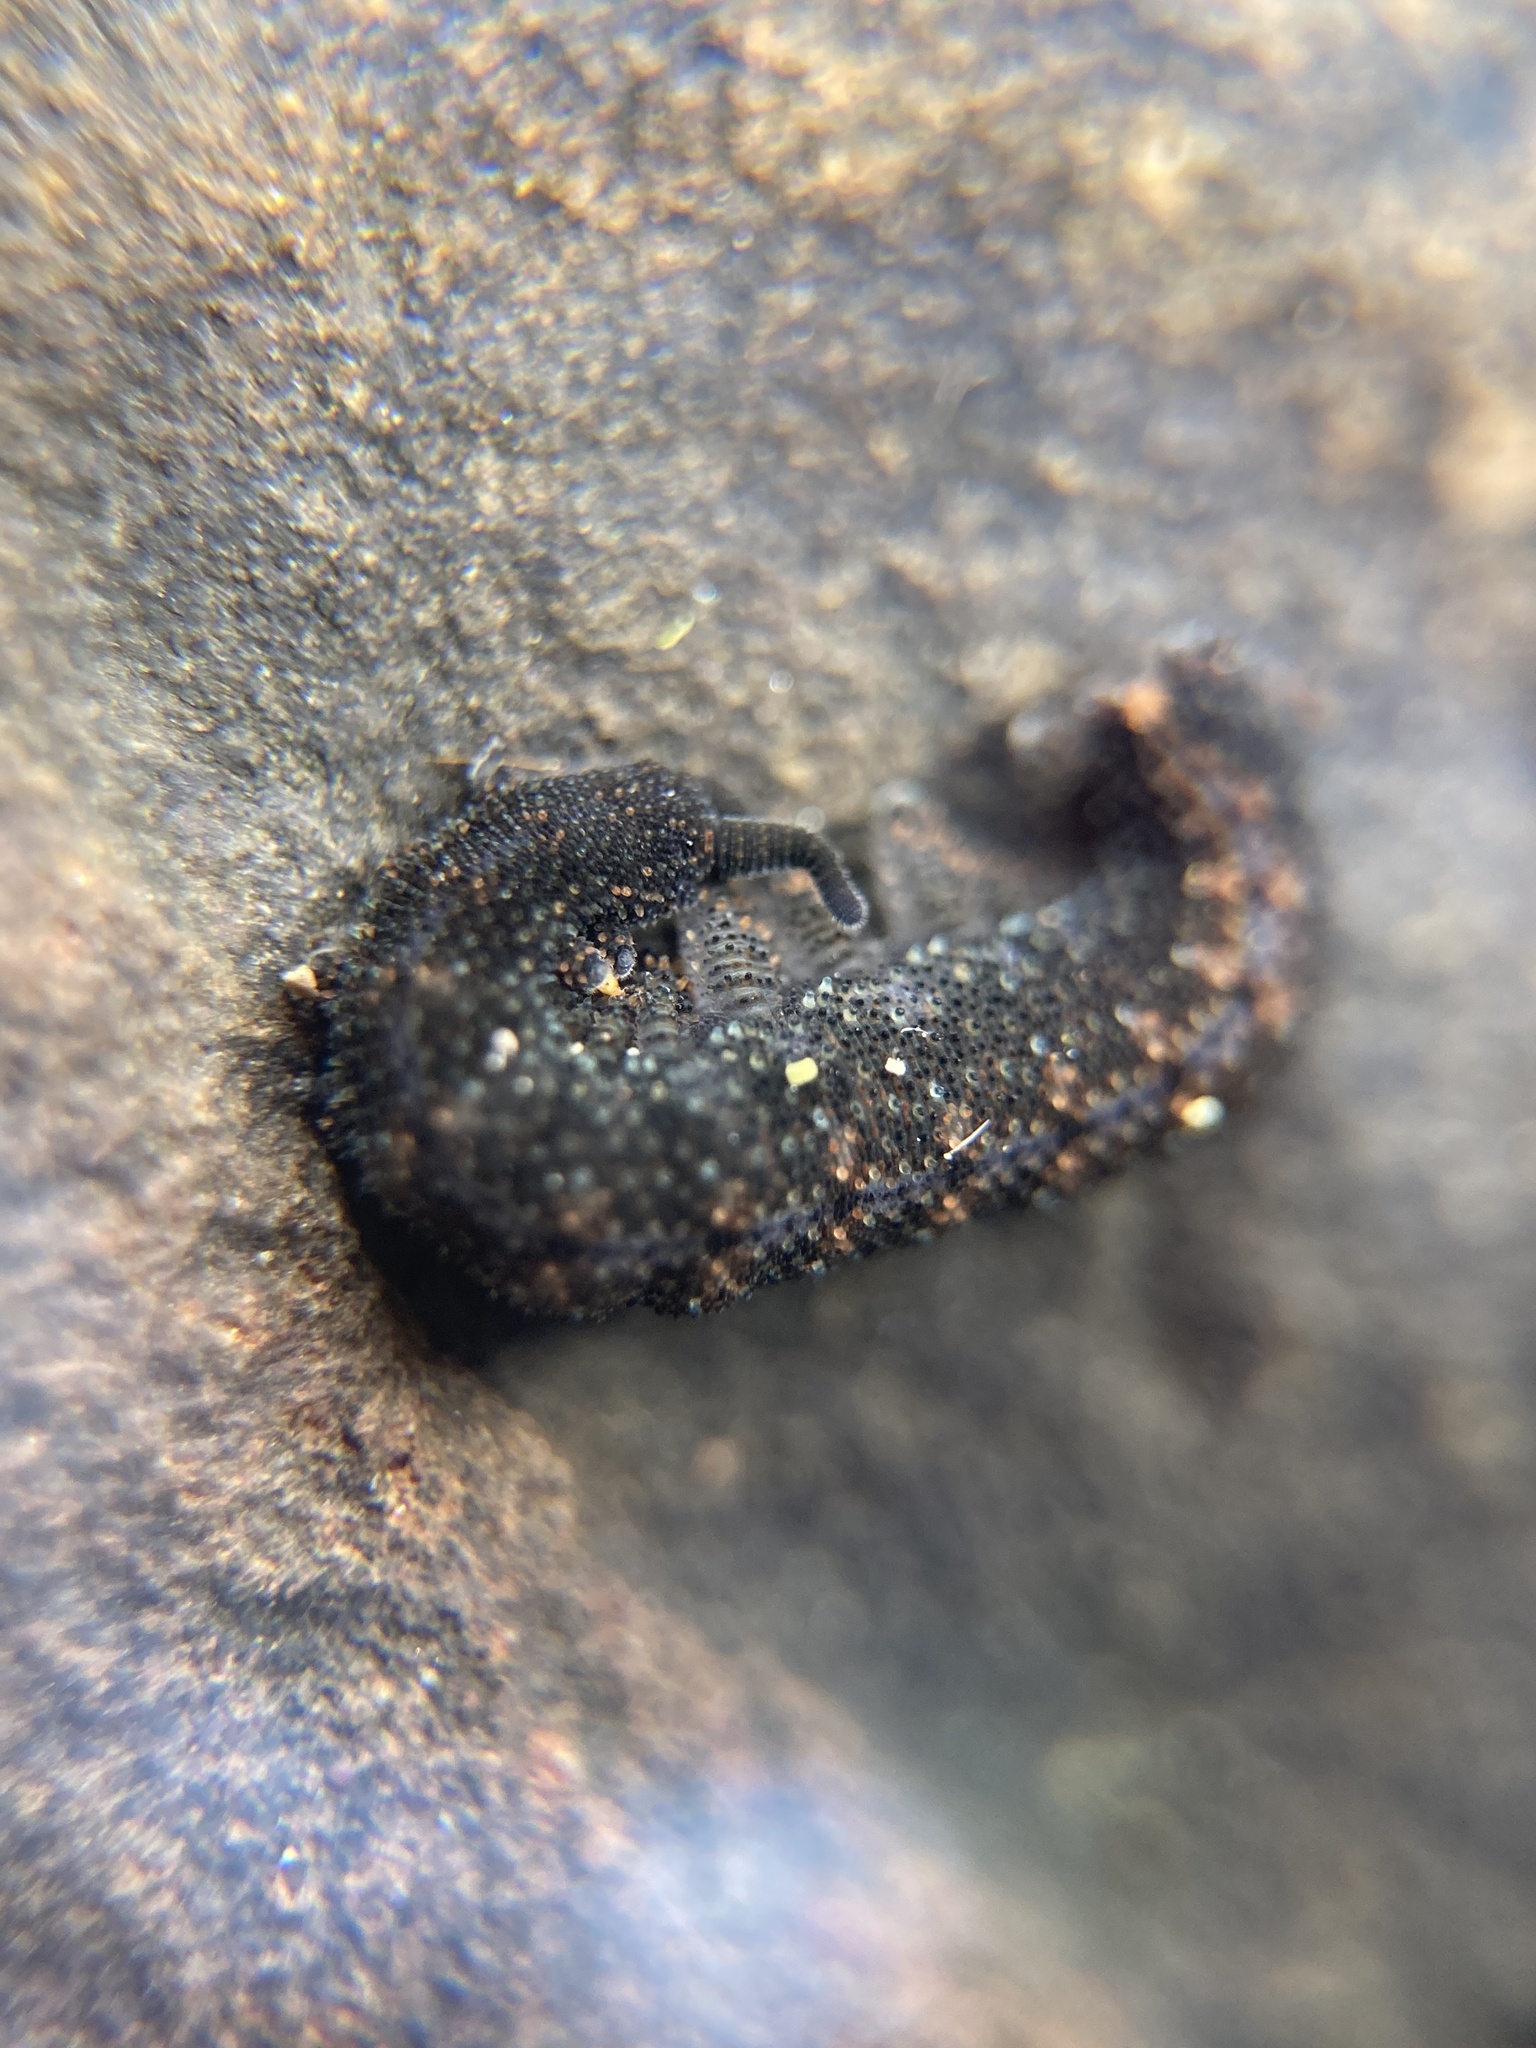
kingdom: Animalia
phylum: Onychophora
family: Peripatopsidae
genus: Anoplokaros
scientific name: Anoplokaros keerensis
